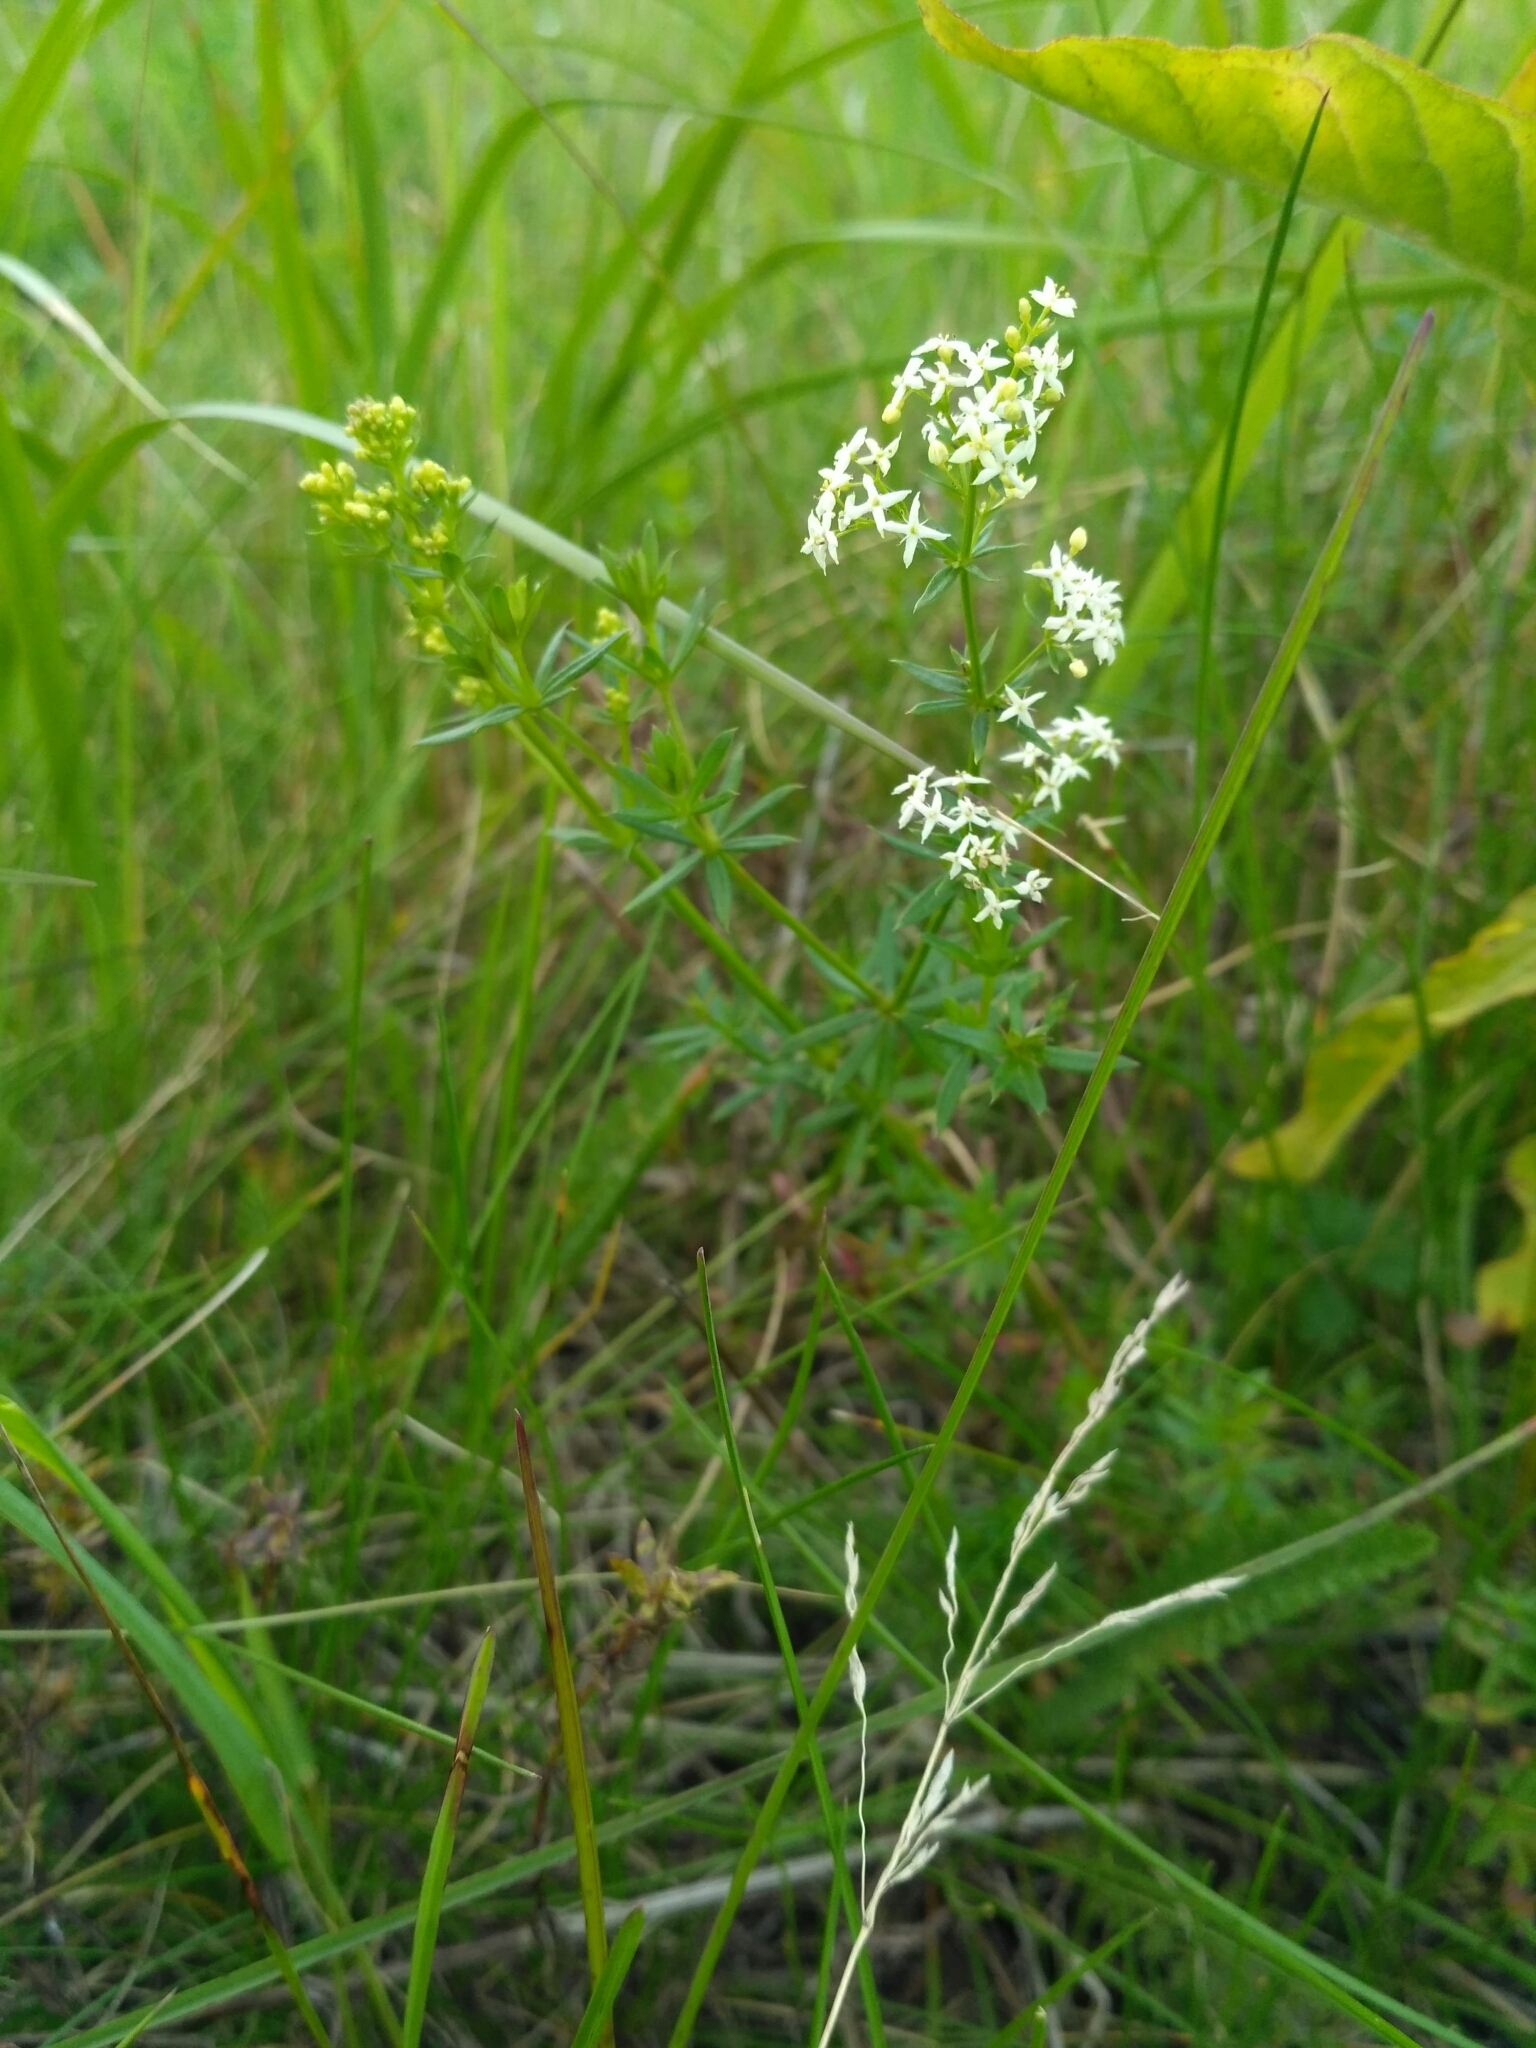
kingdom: Plantae
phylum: Tracheophyta
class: Magnoliopsida
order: Gentianales
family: Rubiaceae
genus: Galium
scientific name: Galium mollugo
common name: Hedge bedstraw
